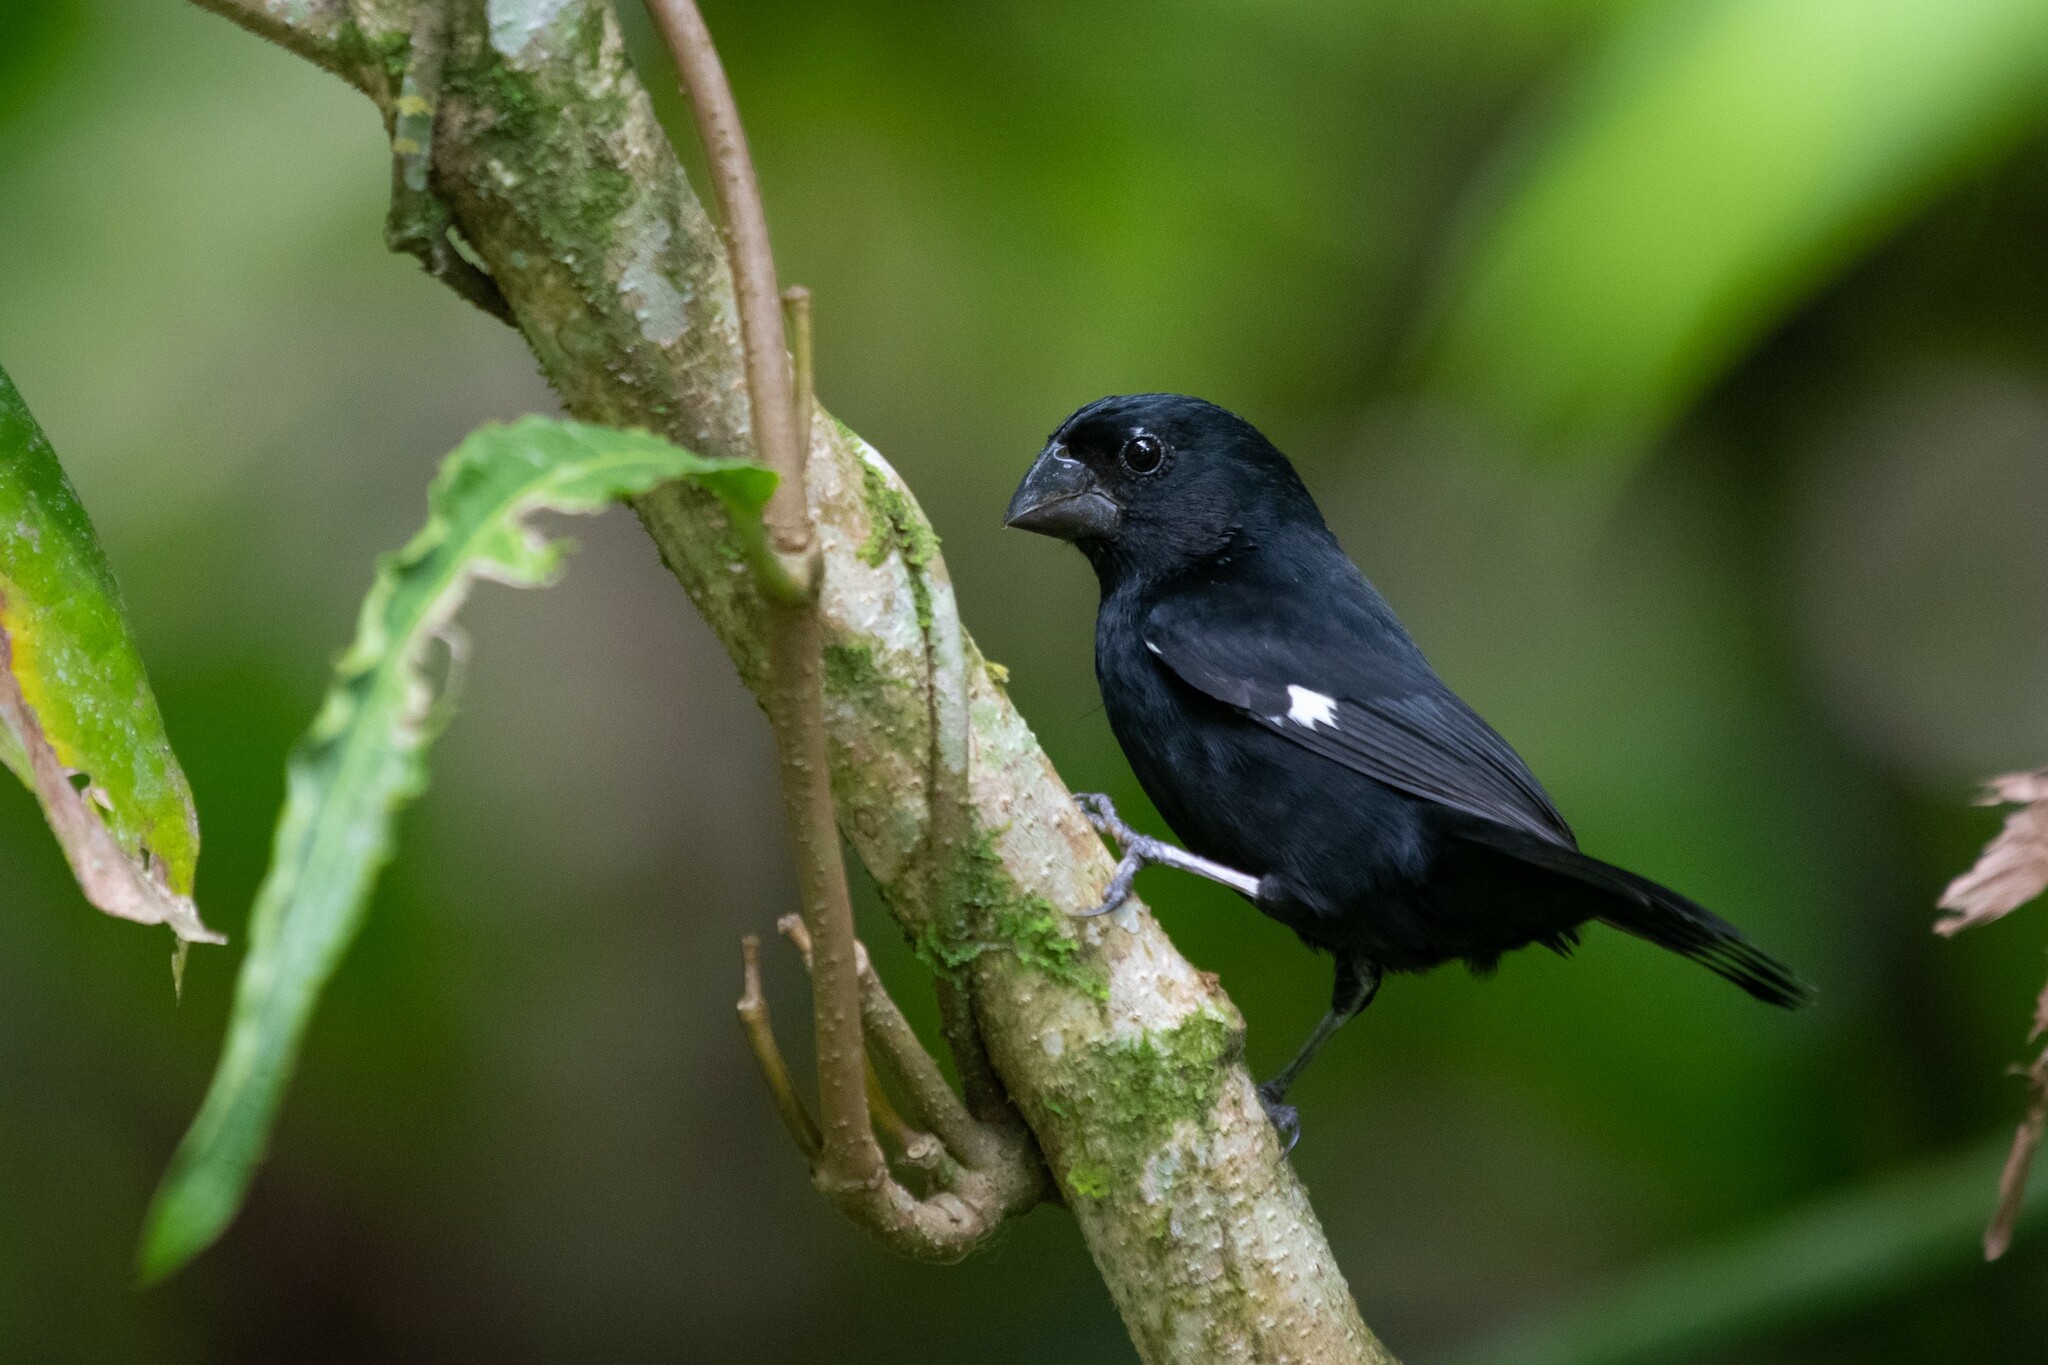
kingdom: Animalia
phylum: Chordata
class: Aves
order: Passeriformes
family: Thraupidae
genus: Sporophila
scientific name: Sporophila funerea
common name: Thick-billed seed-finch
